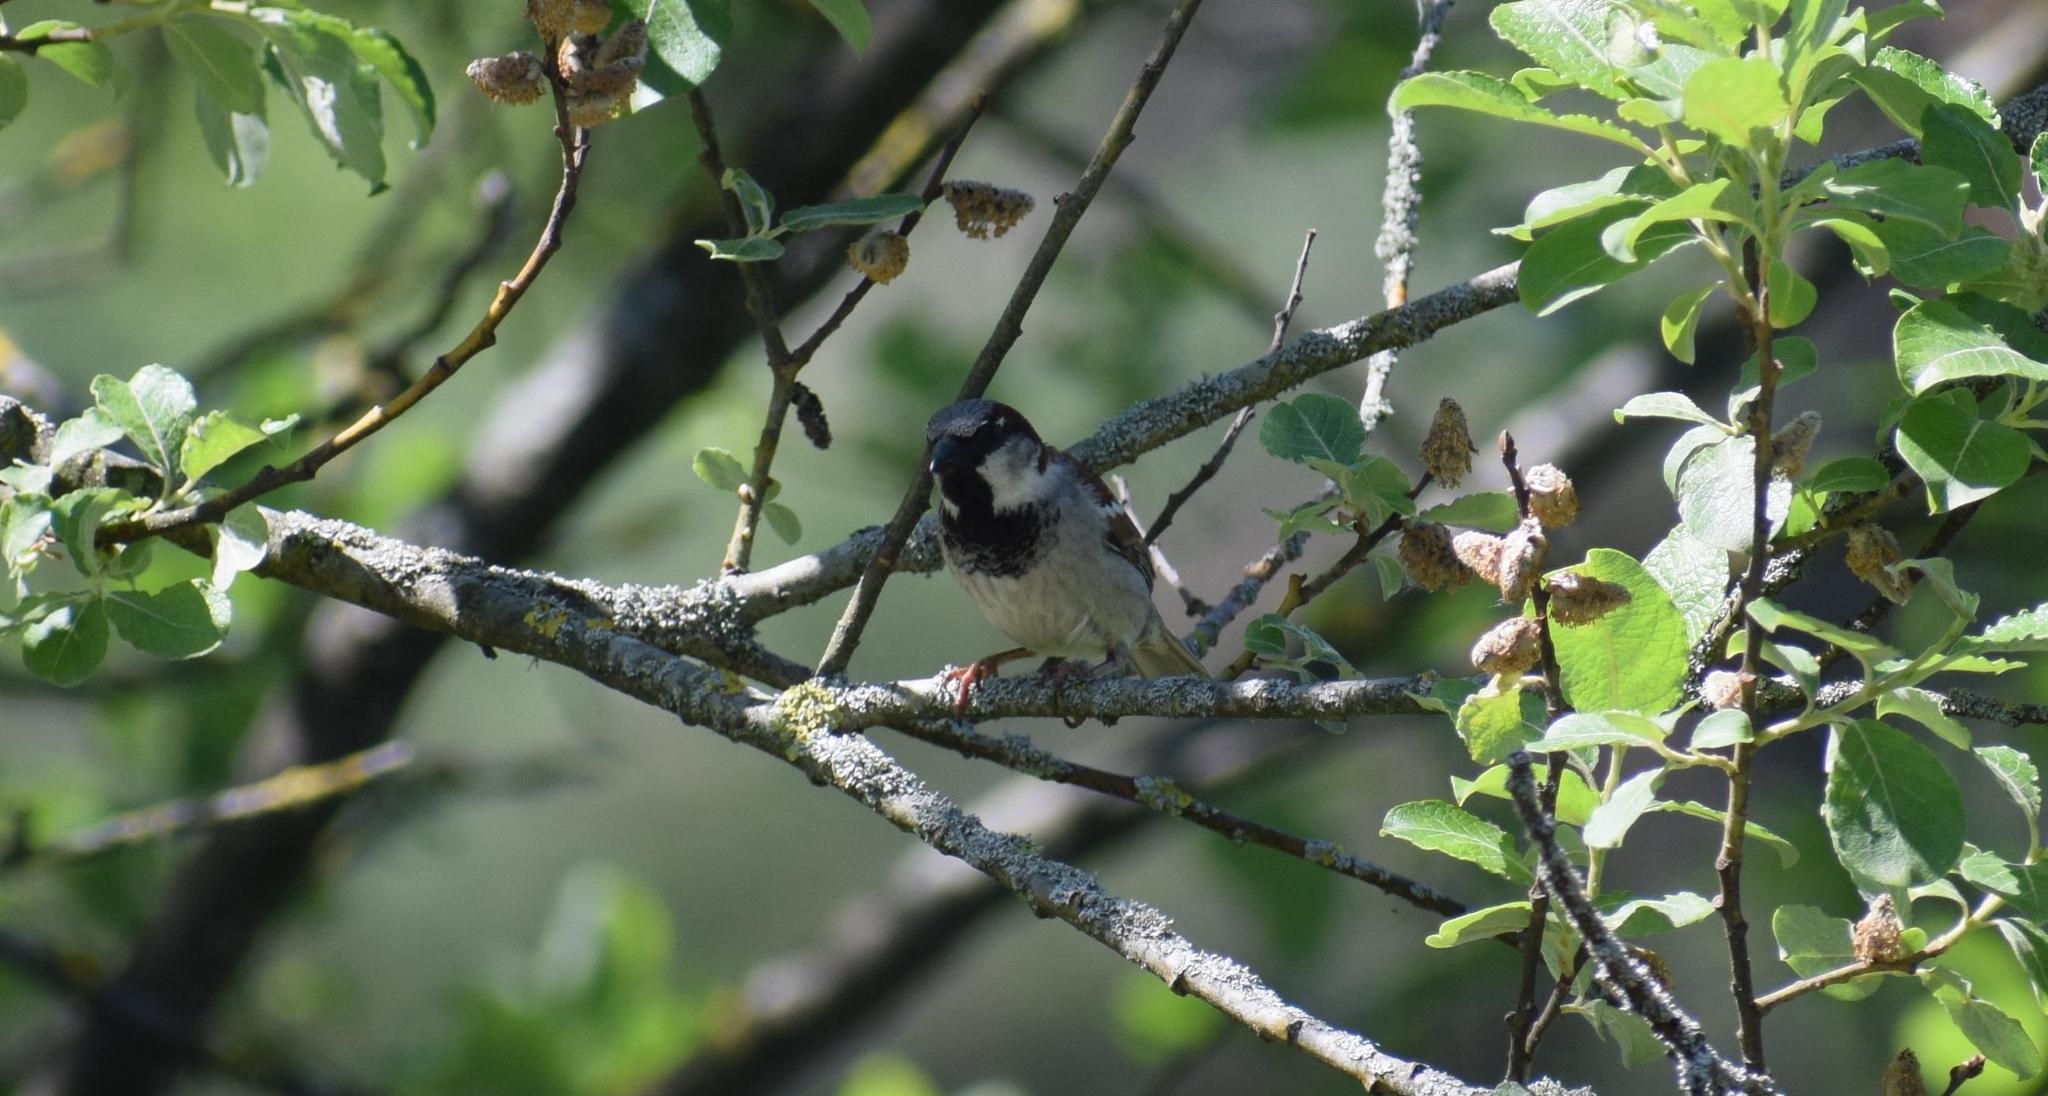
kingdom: Animalia
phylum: Chordata
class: Aves
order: Passeriformes
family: Passeridae
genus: Passer
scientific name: Passer domesticus
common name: House sparrow
